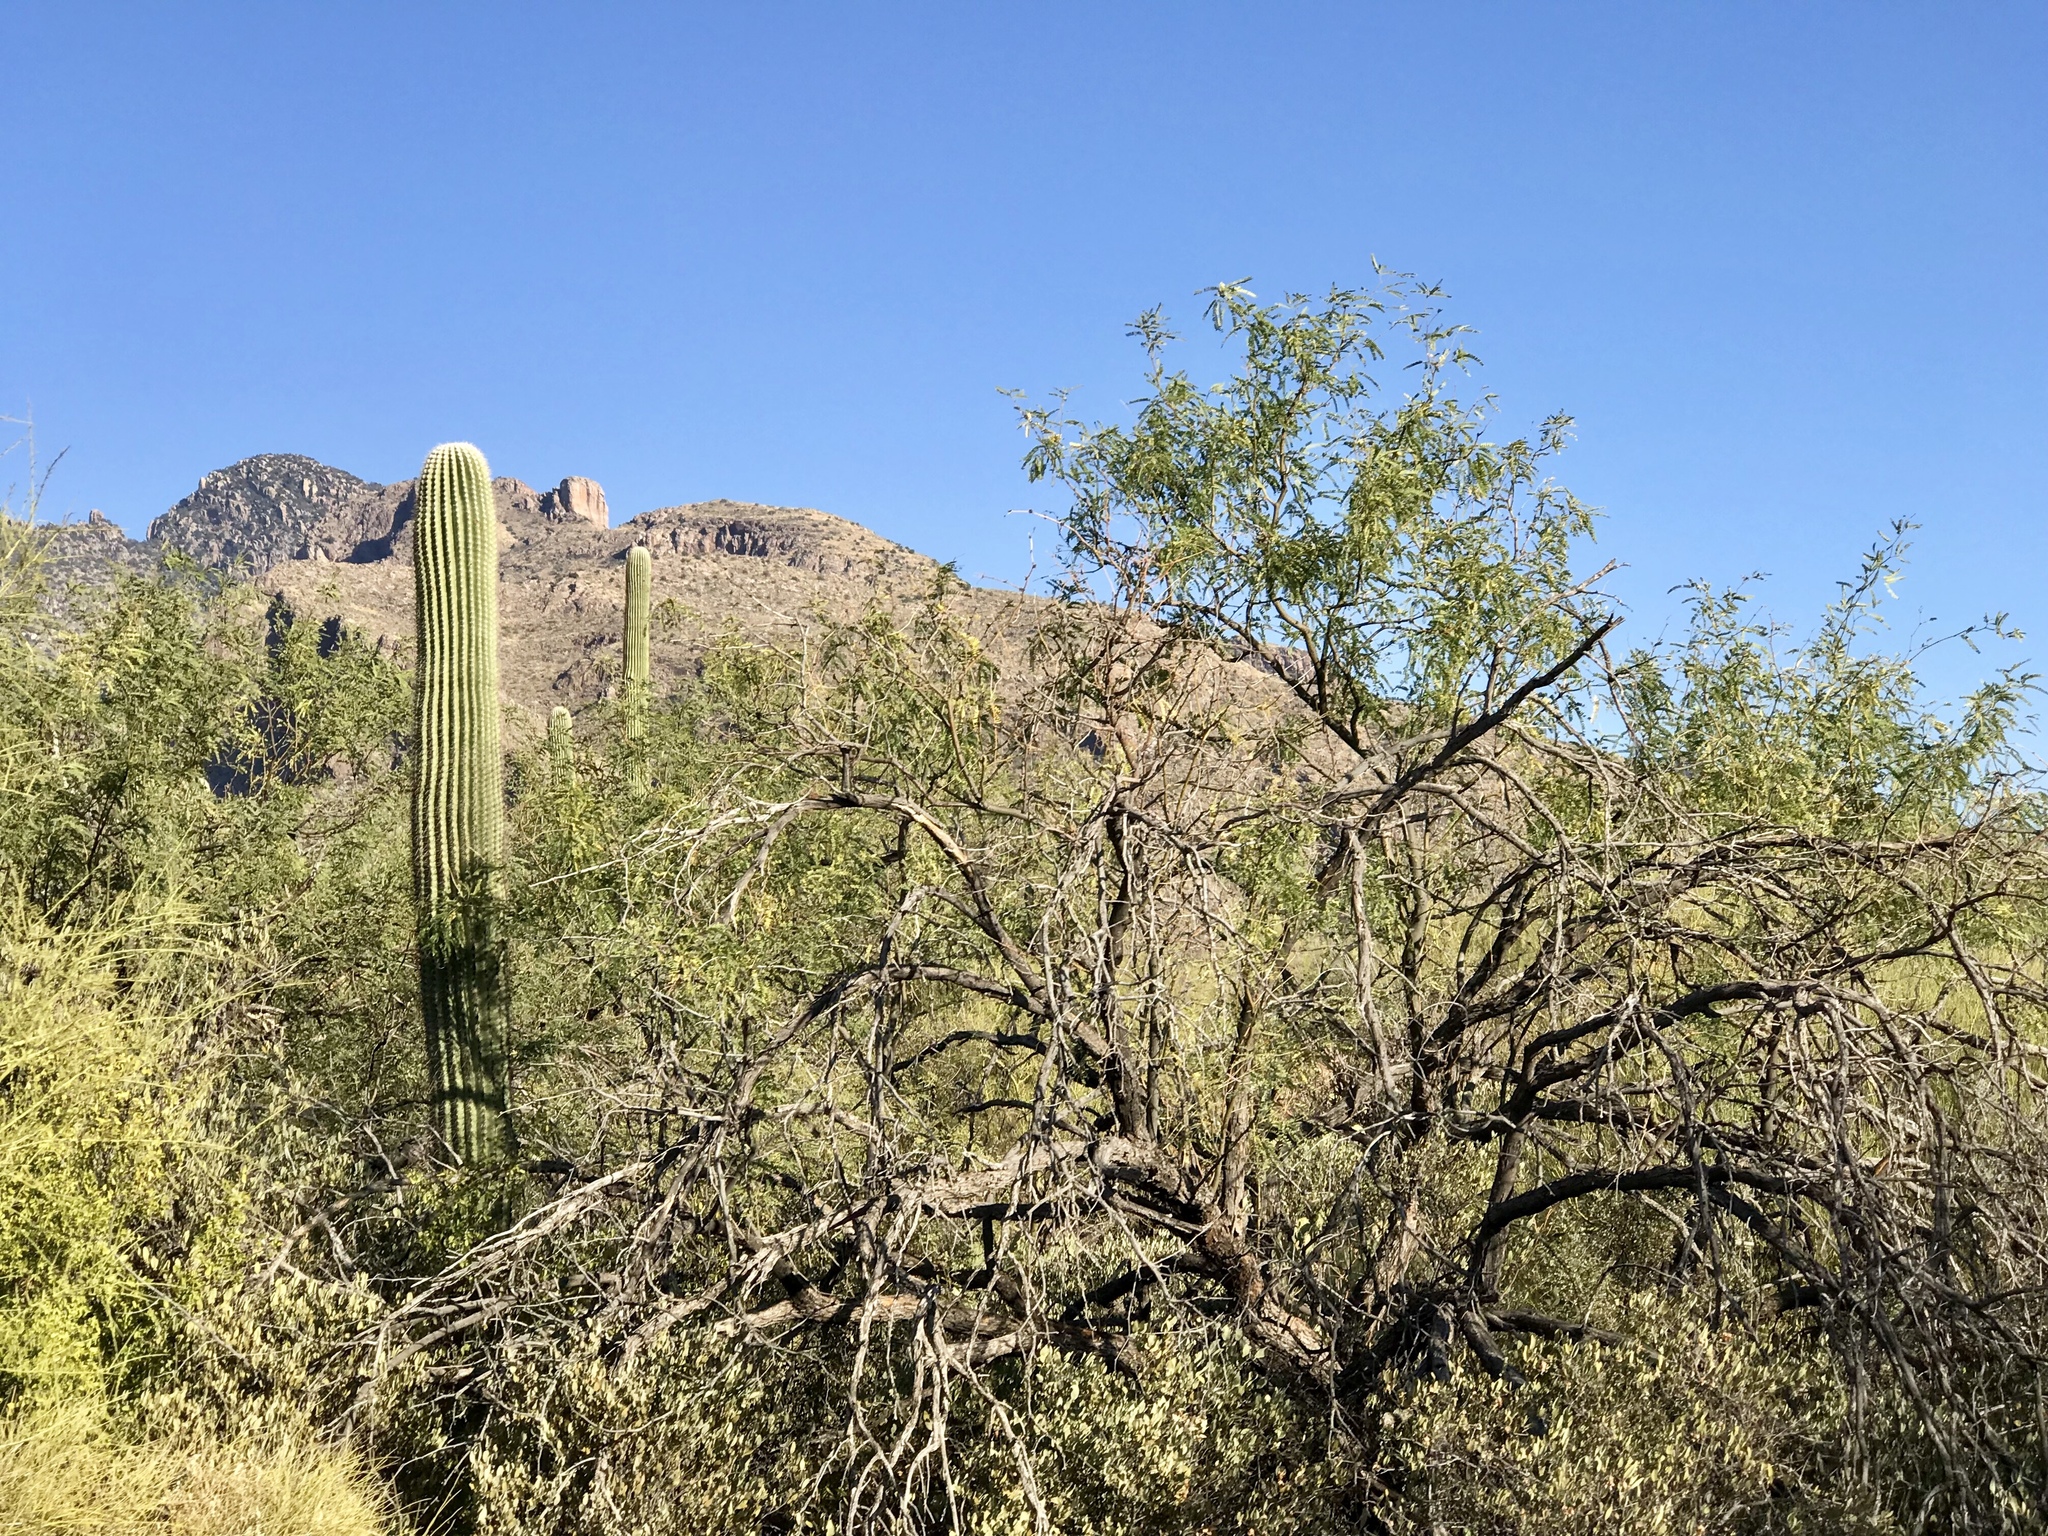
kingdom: Plantae
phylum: Tracheophyta
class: Magnoliopsida
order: Fabales
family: Fabaceae
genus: Prosopis
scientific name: Prosopis velutina
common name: Velvet mesquite
